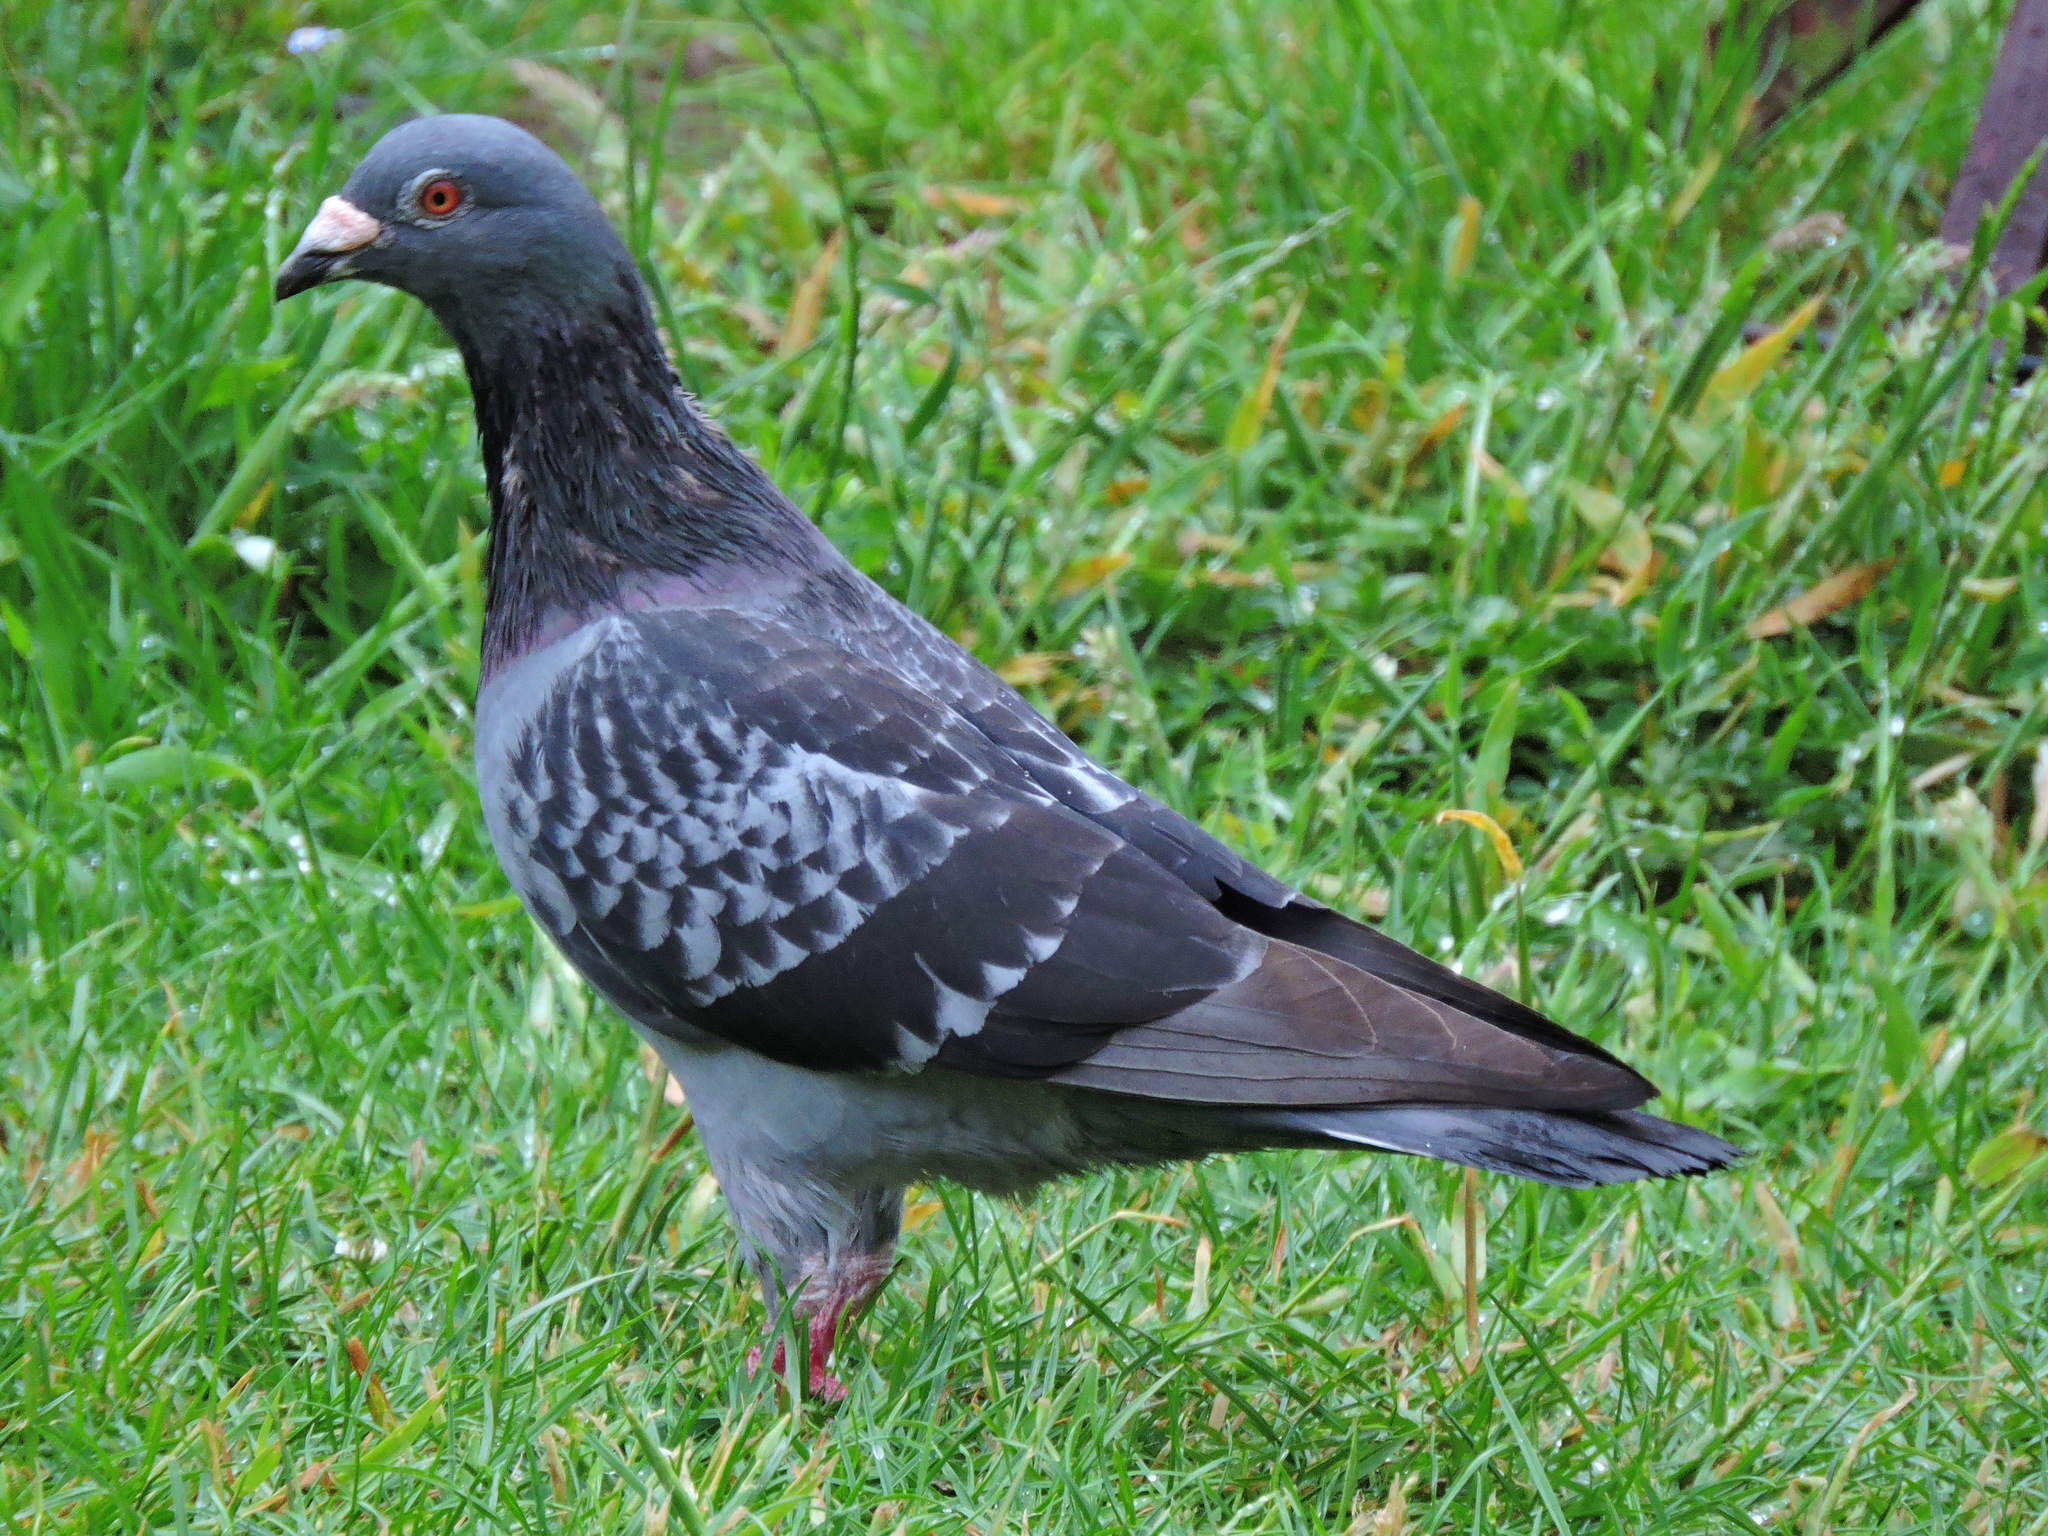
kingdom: Animalia
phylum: Chordata
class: Aves
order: Columbiformes
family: Columbidae
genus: Columba
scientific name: Columba livia
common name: Rock pigeon
